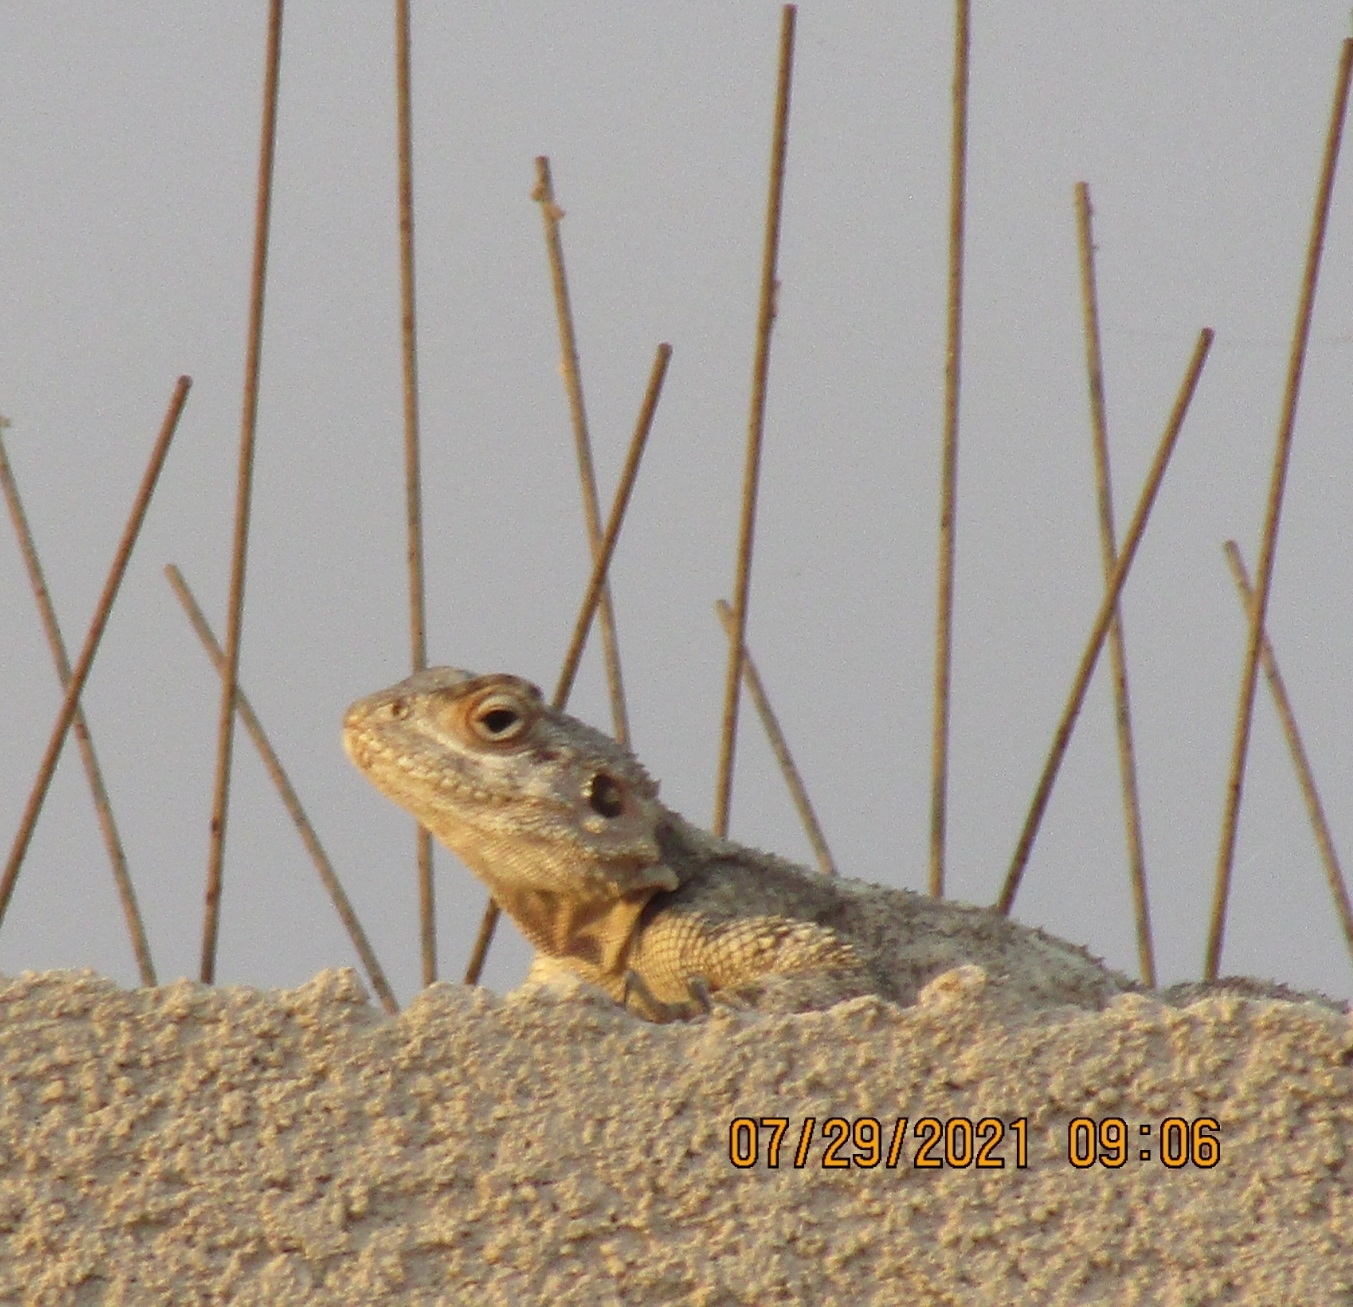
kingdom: Animalia
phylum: Chordata
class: Squamata
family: Agamidae
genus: Laudakia
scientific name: Laudakia vulgaris
